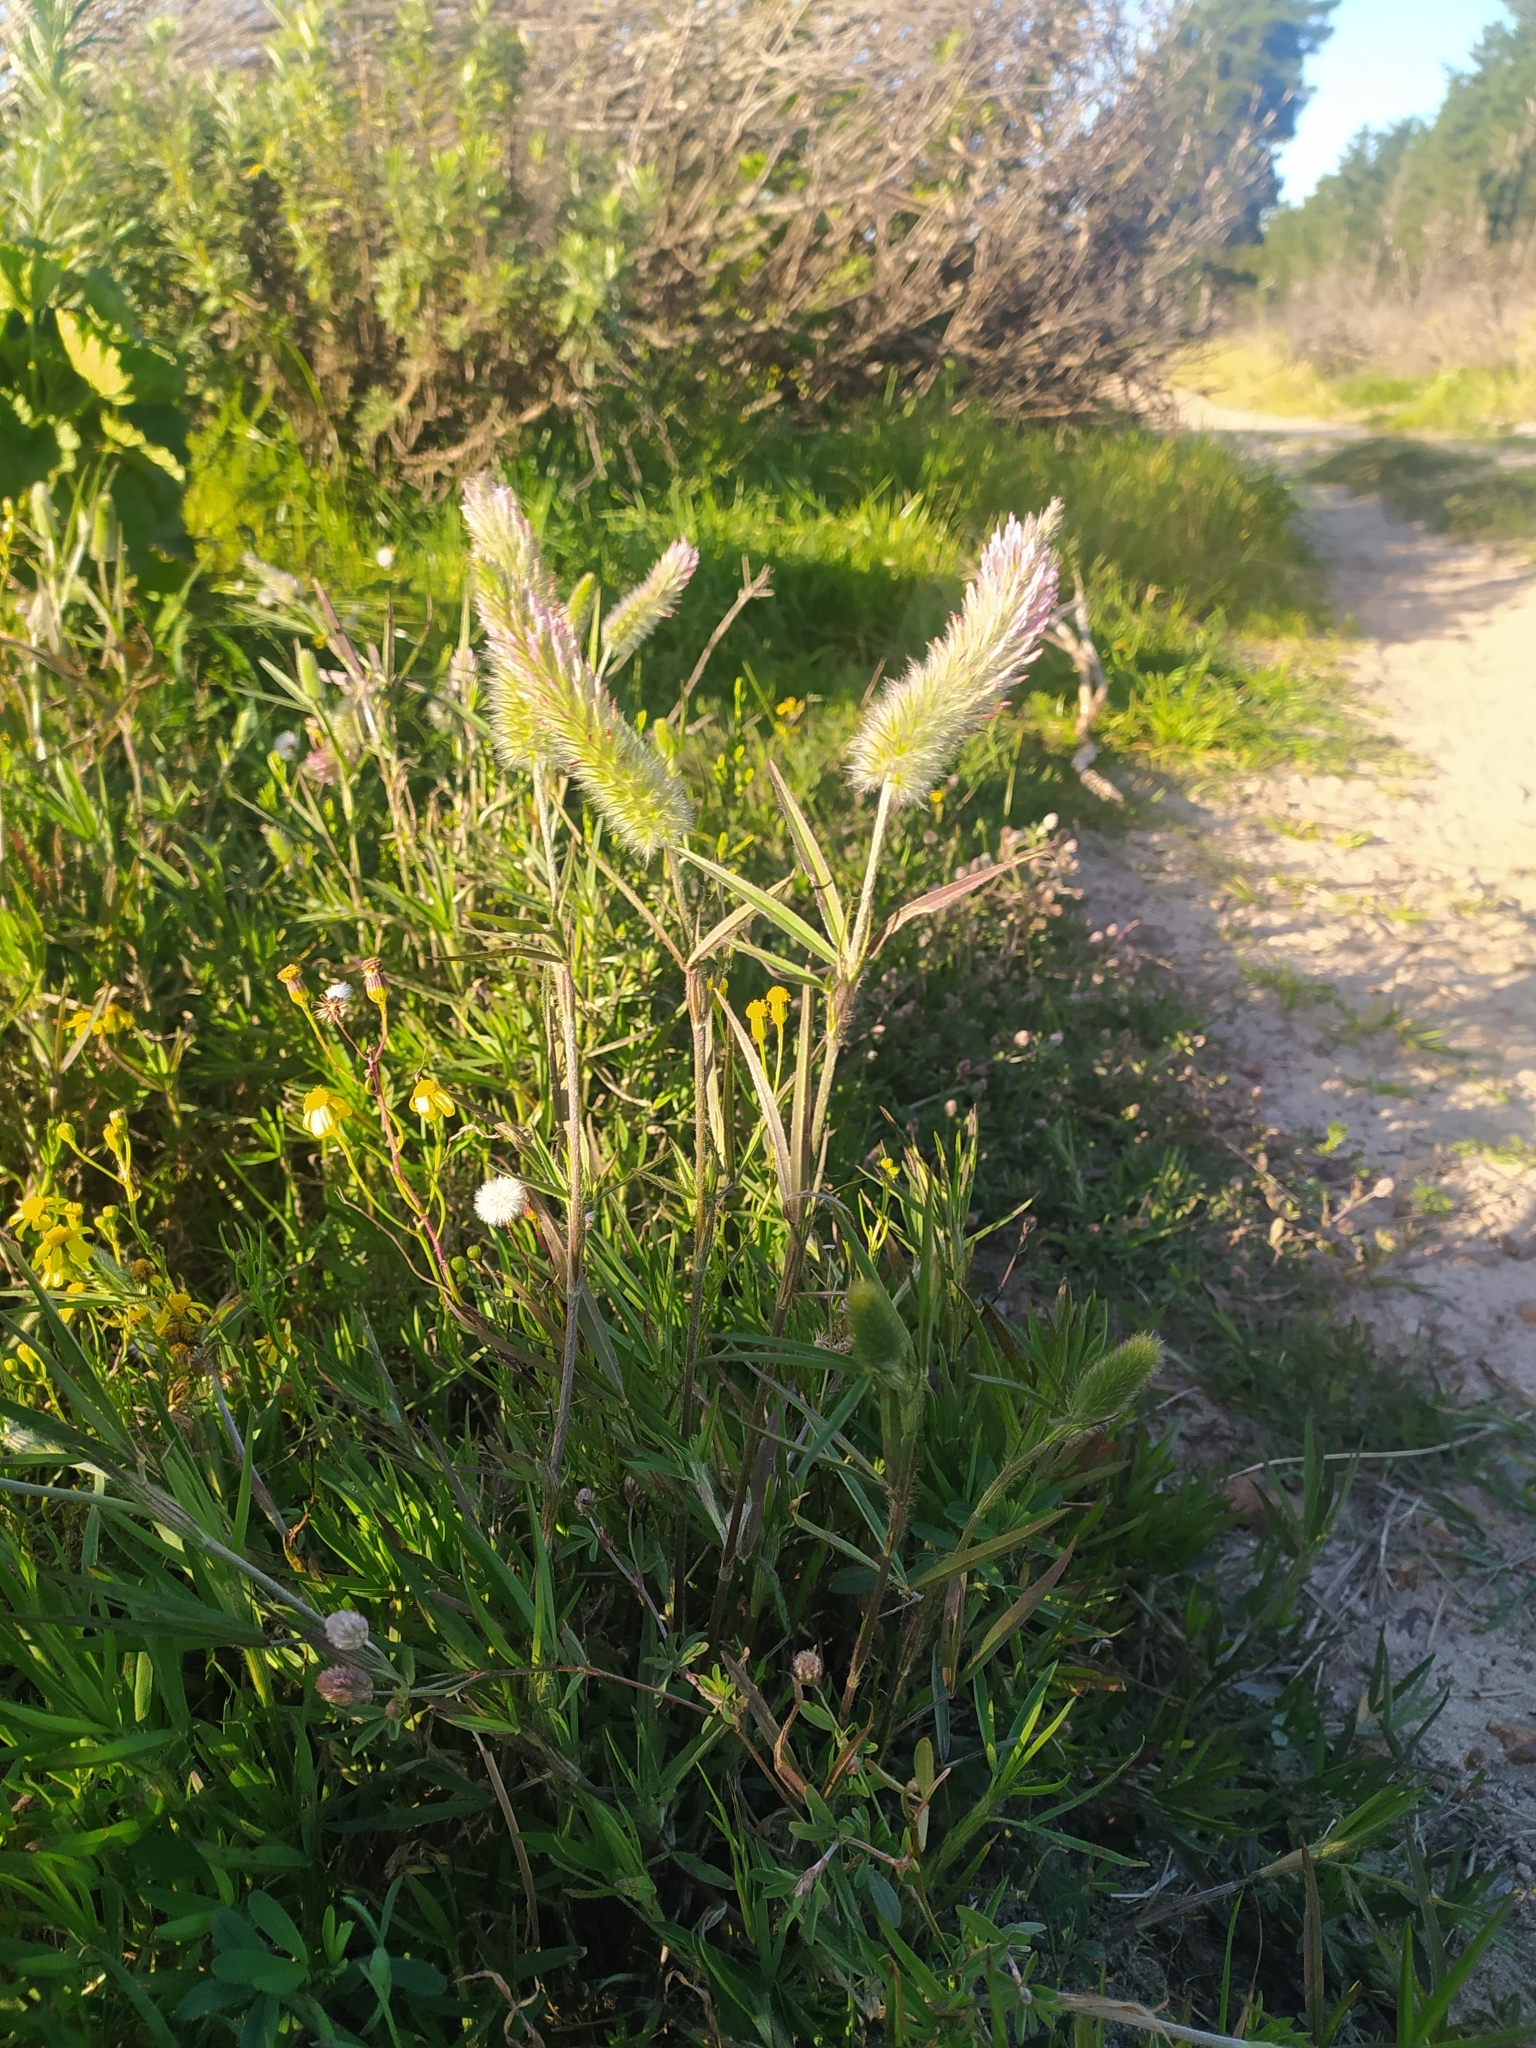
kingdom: Plantae
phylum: Tracheophyta
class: Magnoliopsida
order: Fabales
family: Fabaceae
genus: Trifolium
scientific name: Trifolium angustifolium
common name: Narrow clover
